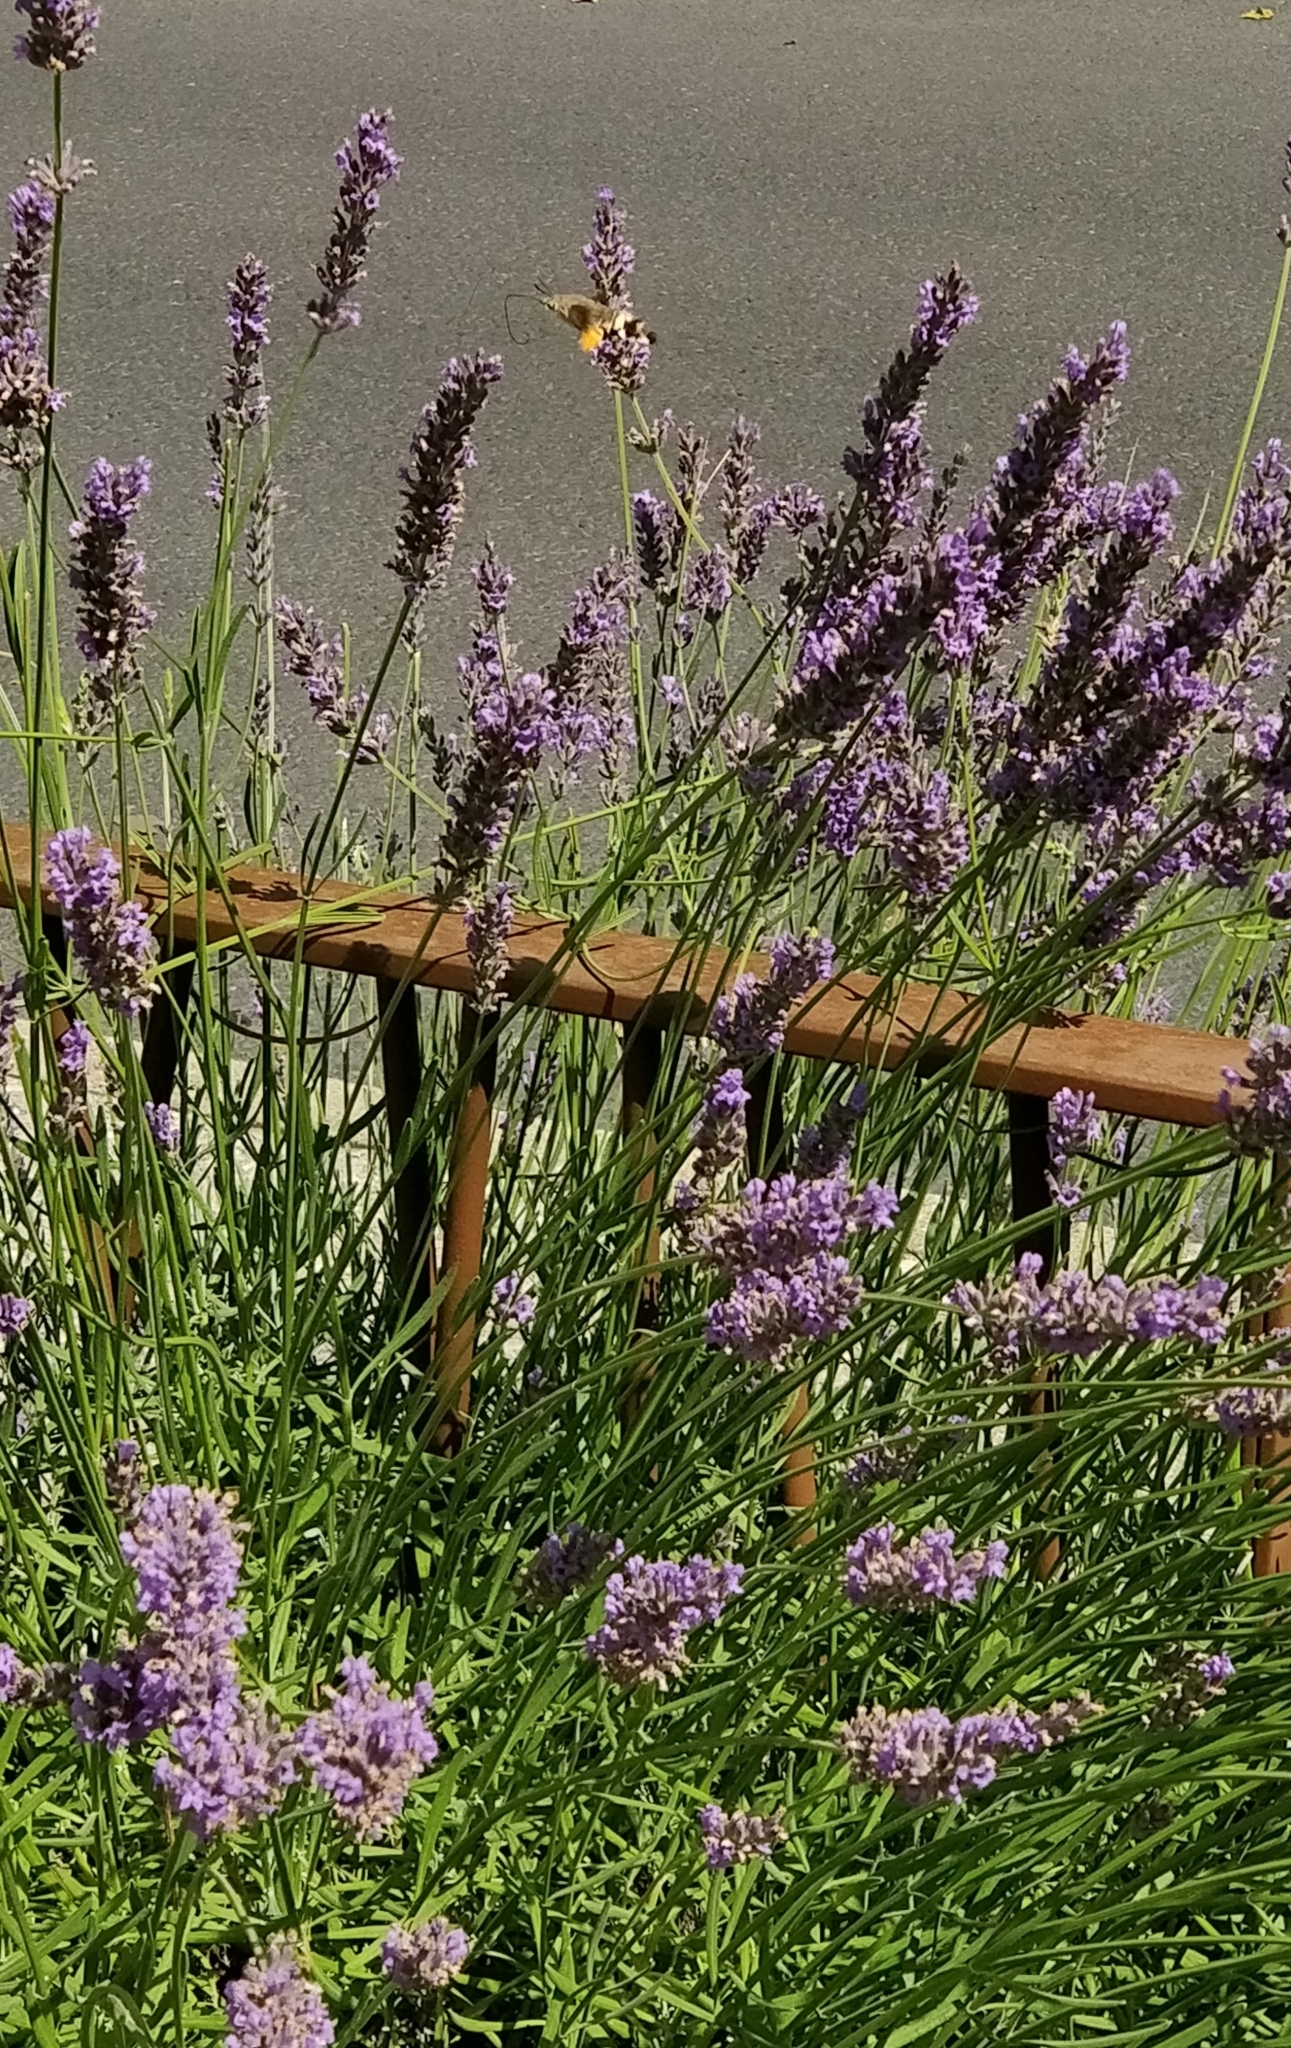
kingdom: Animalia
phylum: Arthropoda
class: Insecta
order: Lepidoptera
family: Sphingidae
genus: Macroglossum
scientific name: Macroglossum stellatarum
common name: Humming-bird hawk-moth
